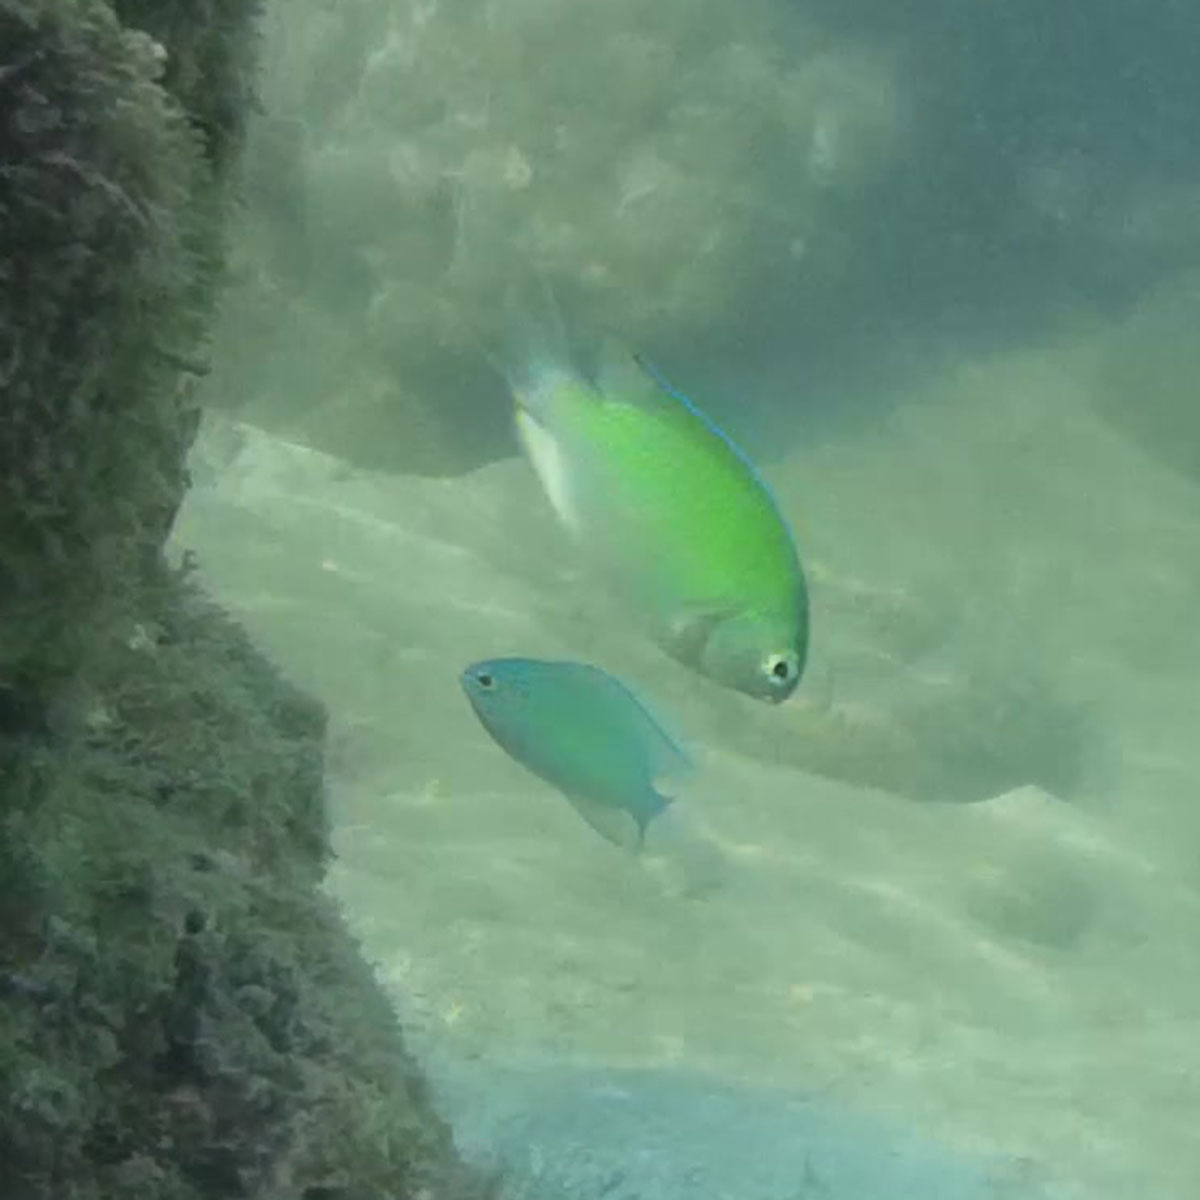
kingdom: Animalia
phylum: Chordata
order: Perciformes
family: Pomacentridae
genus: Chromis
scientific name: Chromis viridis
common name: Blue-green chromis
